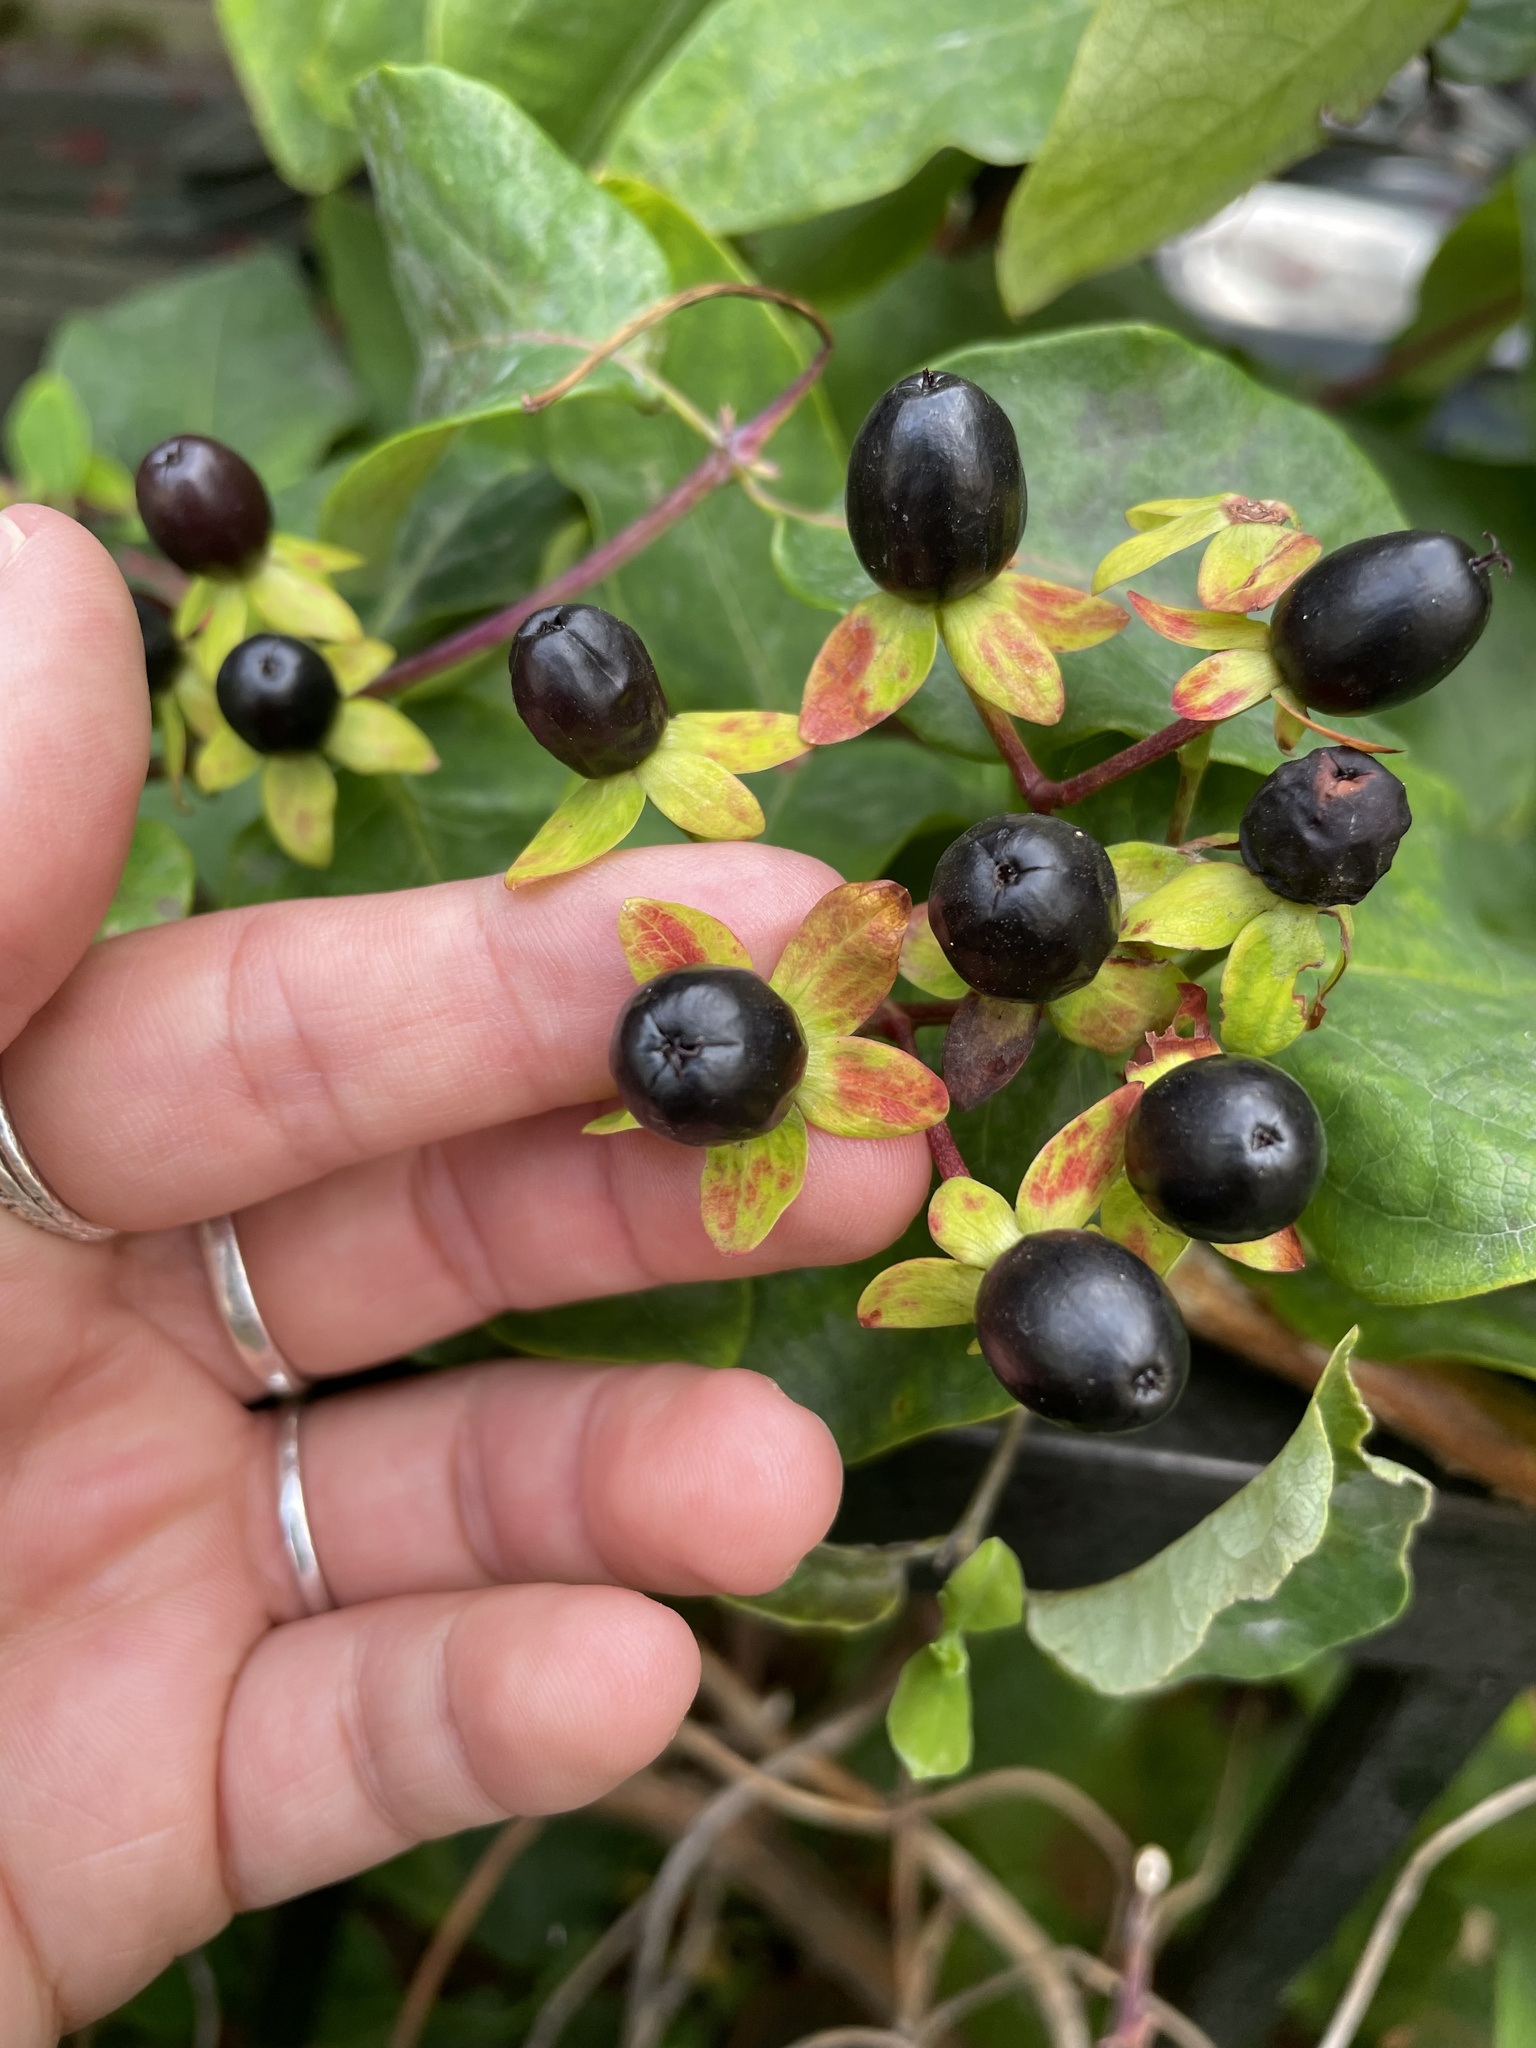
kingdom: Plantae
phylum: Tracheophyta
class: Magnoliopsida
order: Malpighiales
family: Hypericaceae
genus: Hypericum
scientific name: Hypericum androsaemum
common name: Sweet-amber
